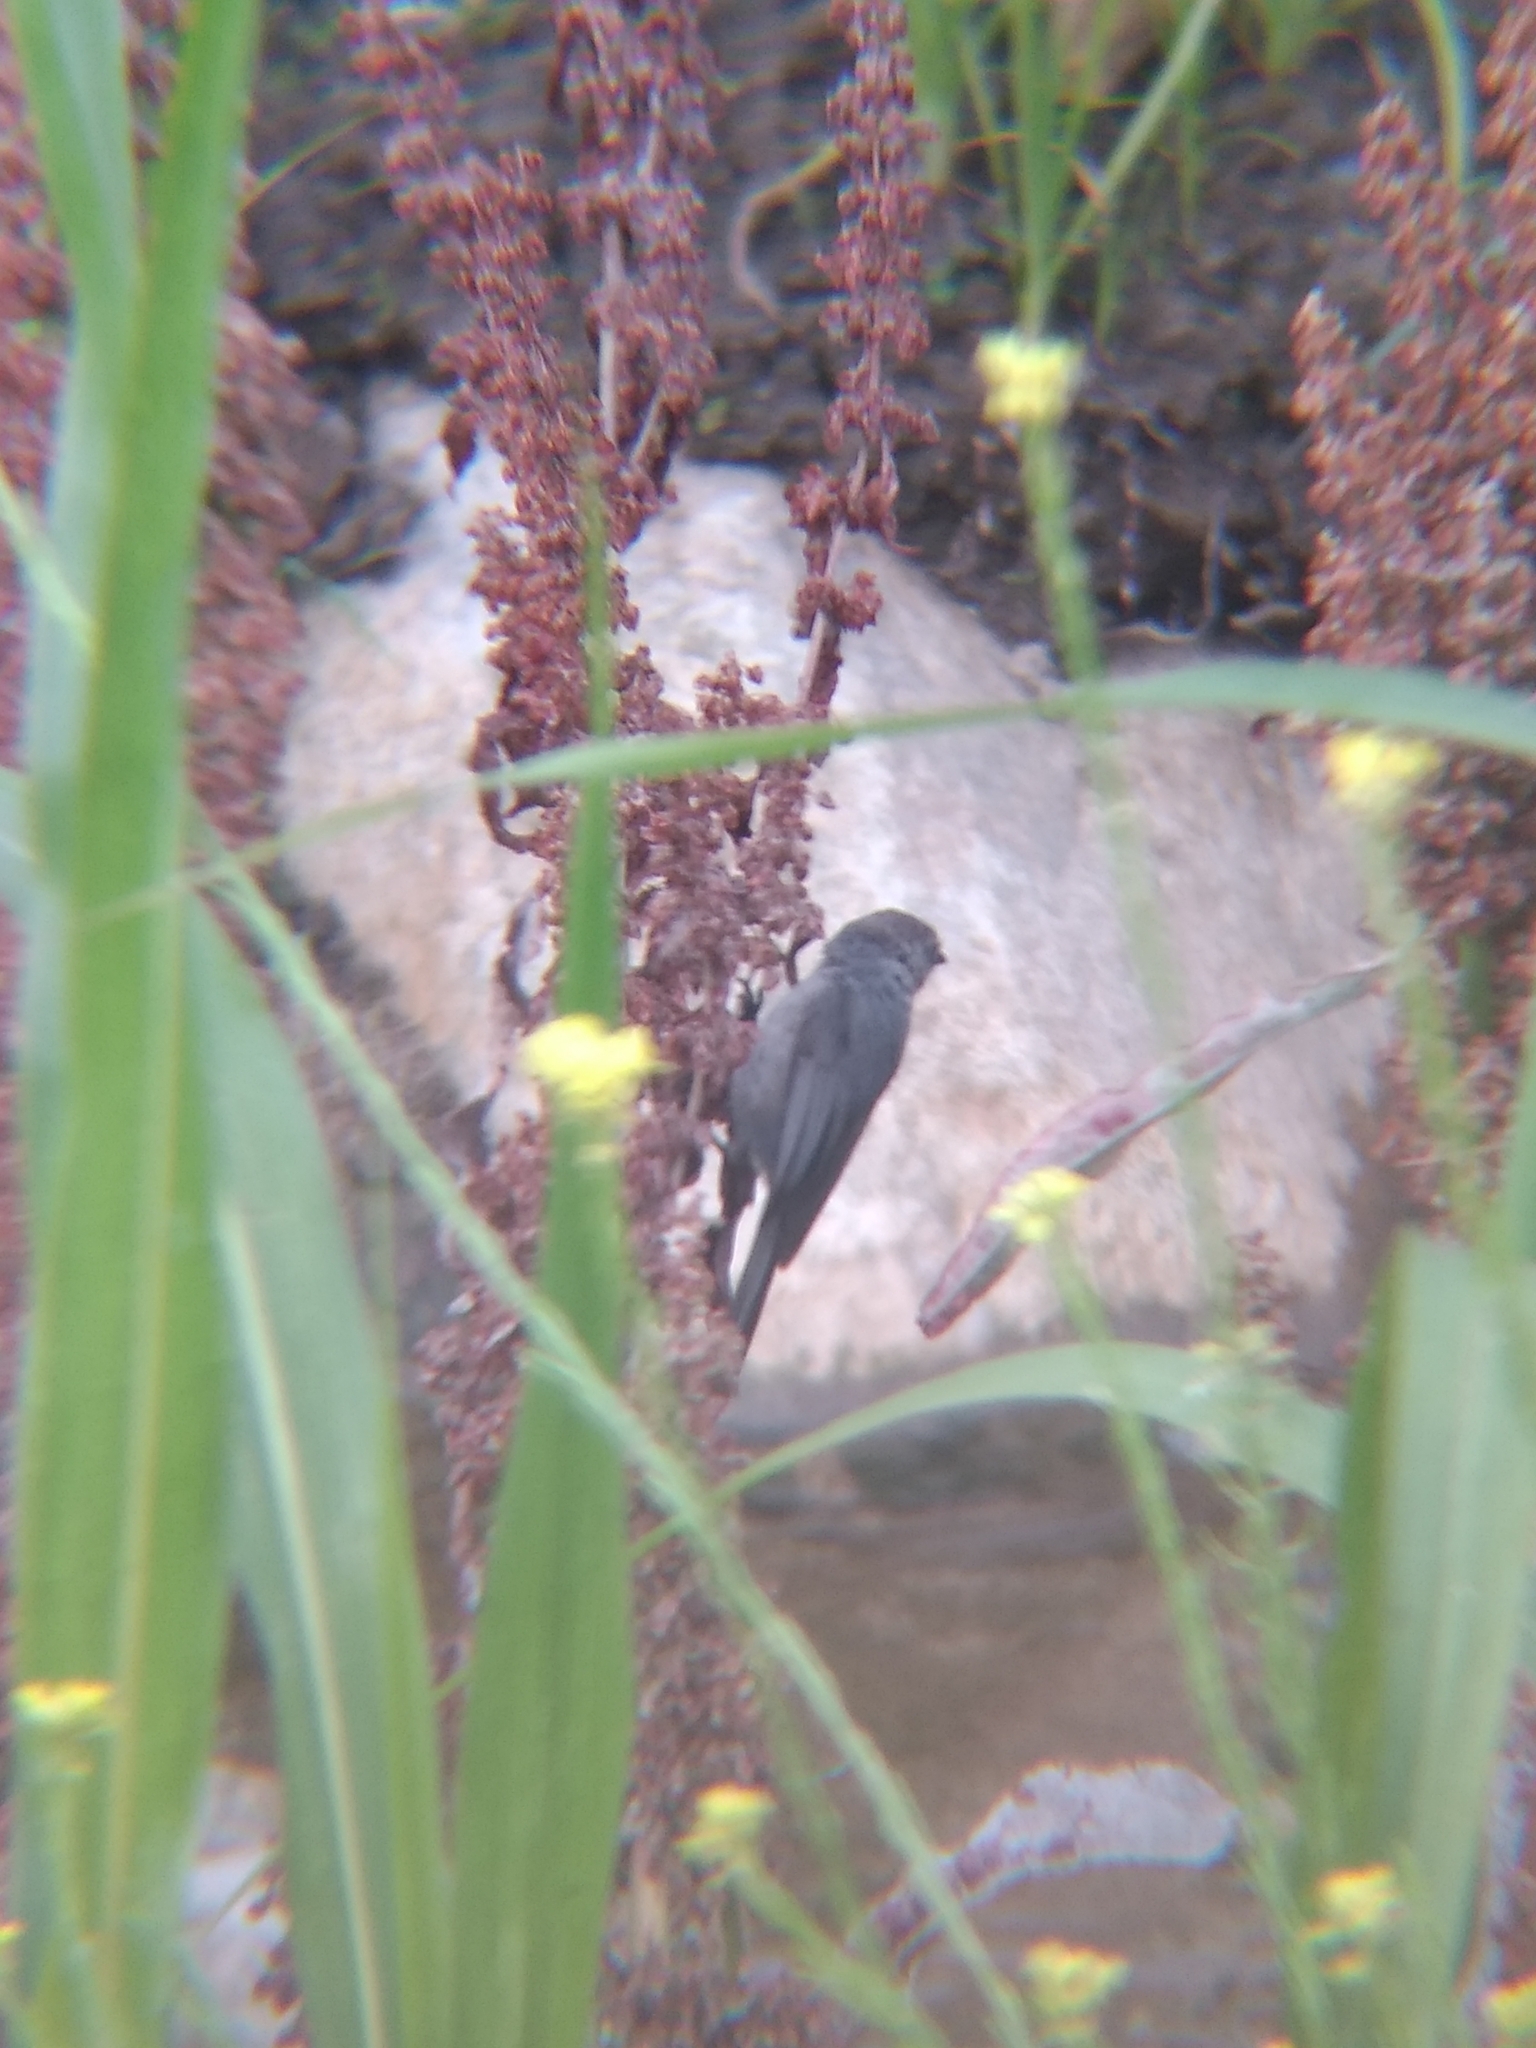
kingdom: Animalia
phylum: Chordata
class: Aves
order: Passeriformes
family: Aegithalidae
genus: Psaltriparus
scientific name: Psaltriparus minimus
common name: American bushtit
